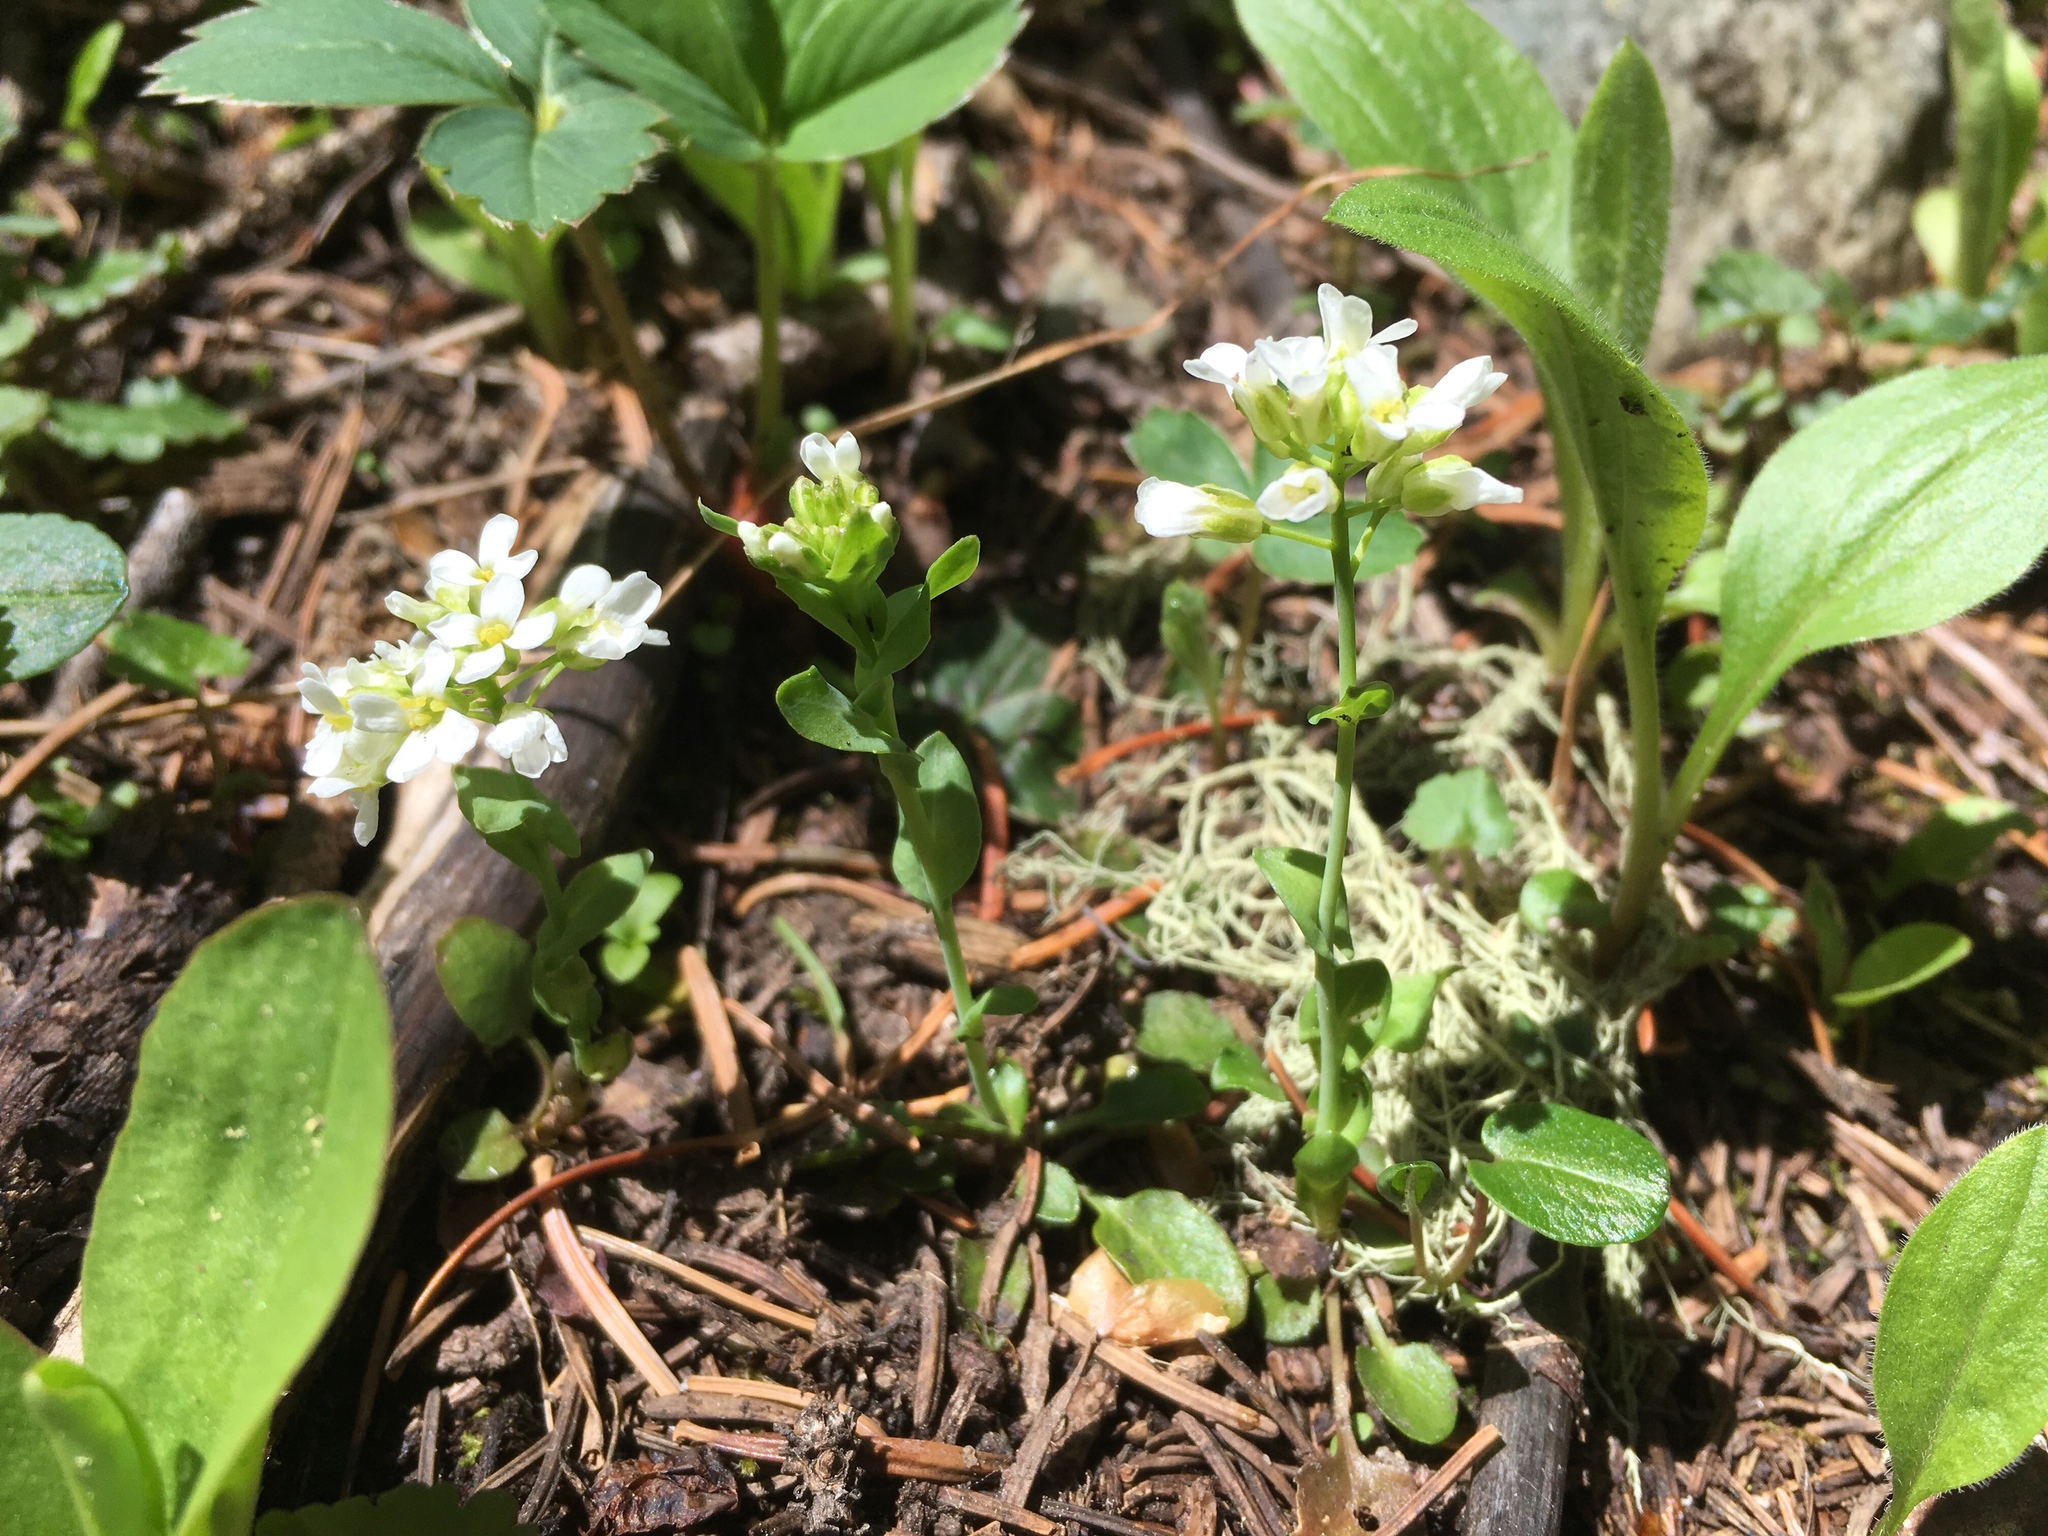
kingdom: Plantae
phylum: Tracheophyta
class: Magnoliopsida
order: Brassicales
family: Brassicaceae
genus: Noccaea
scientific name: Noccaea fendleri
